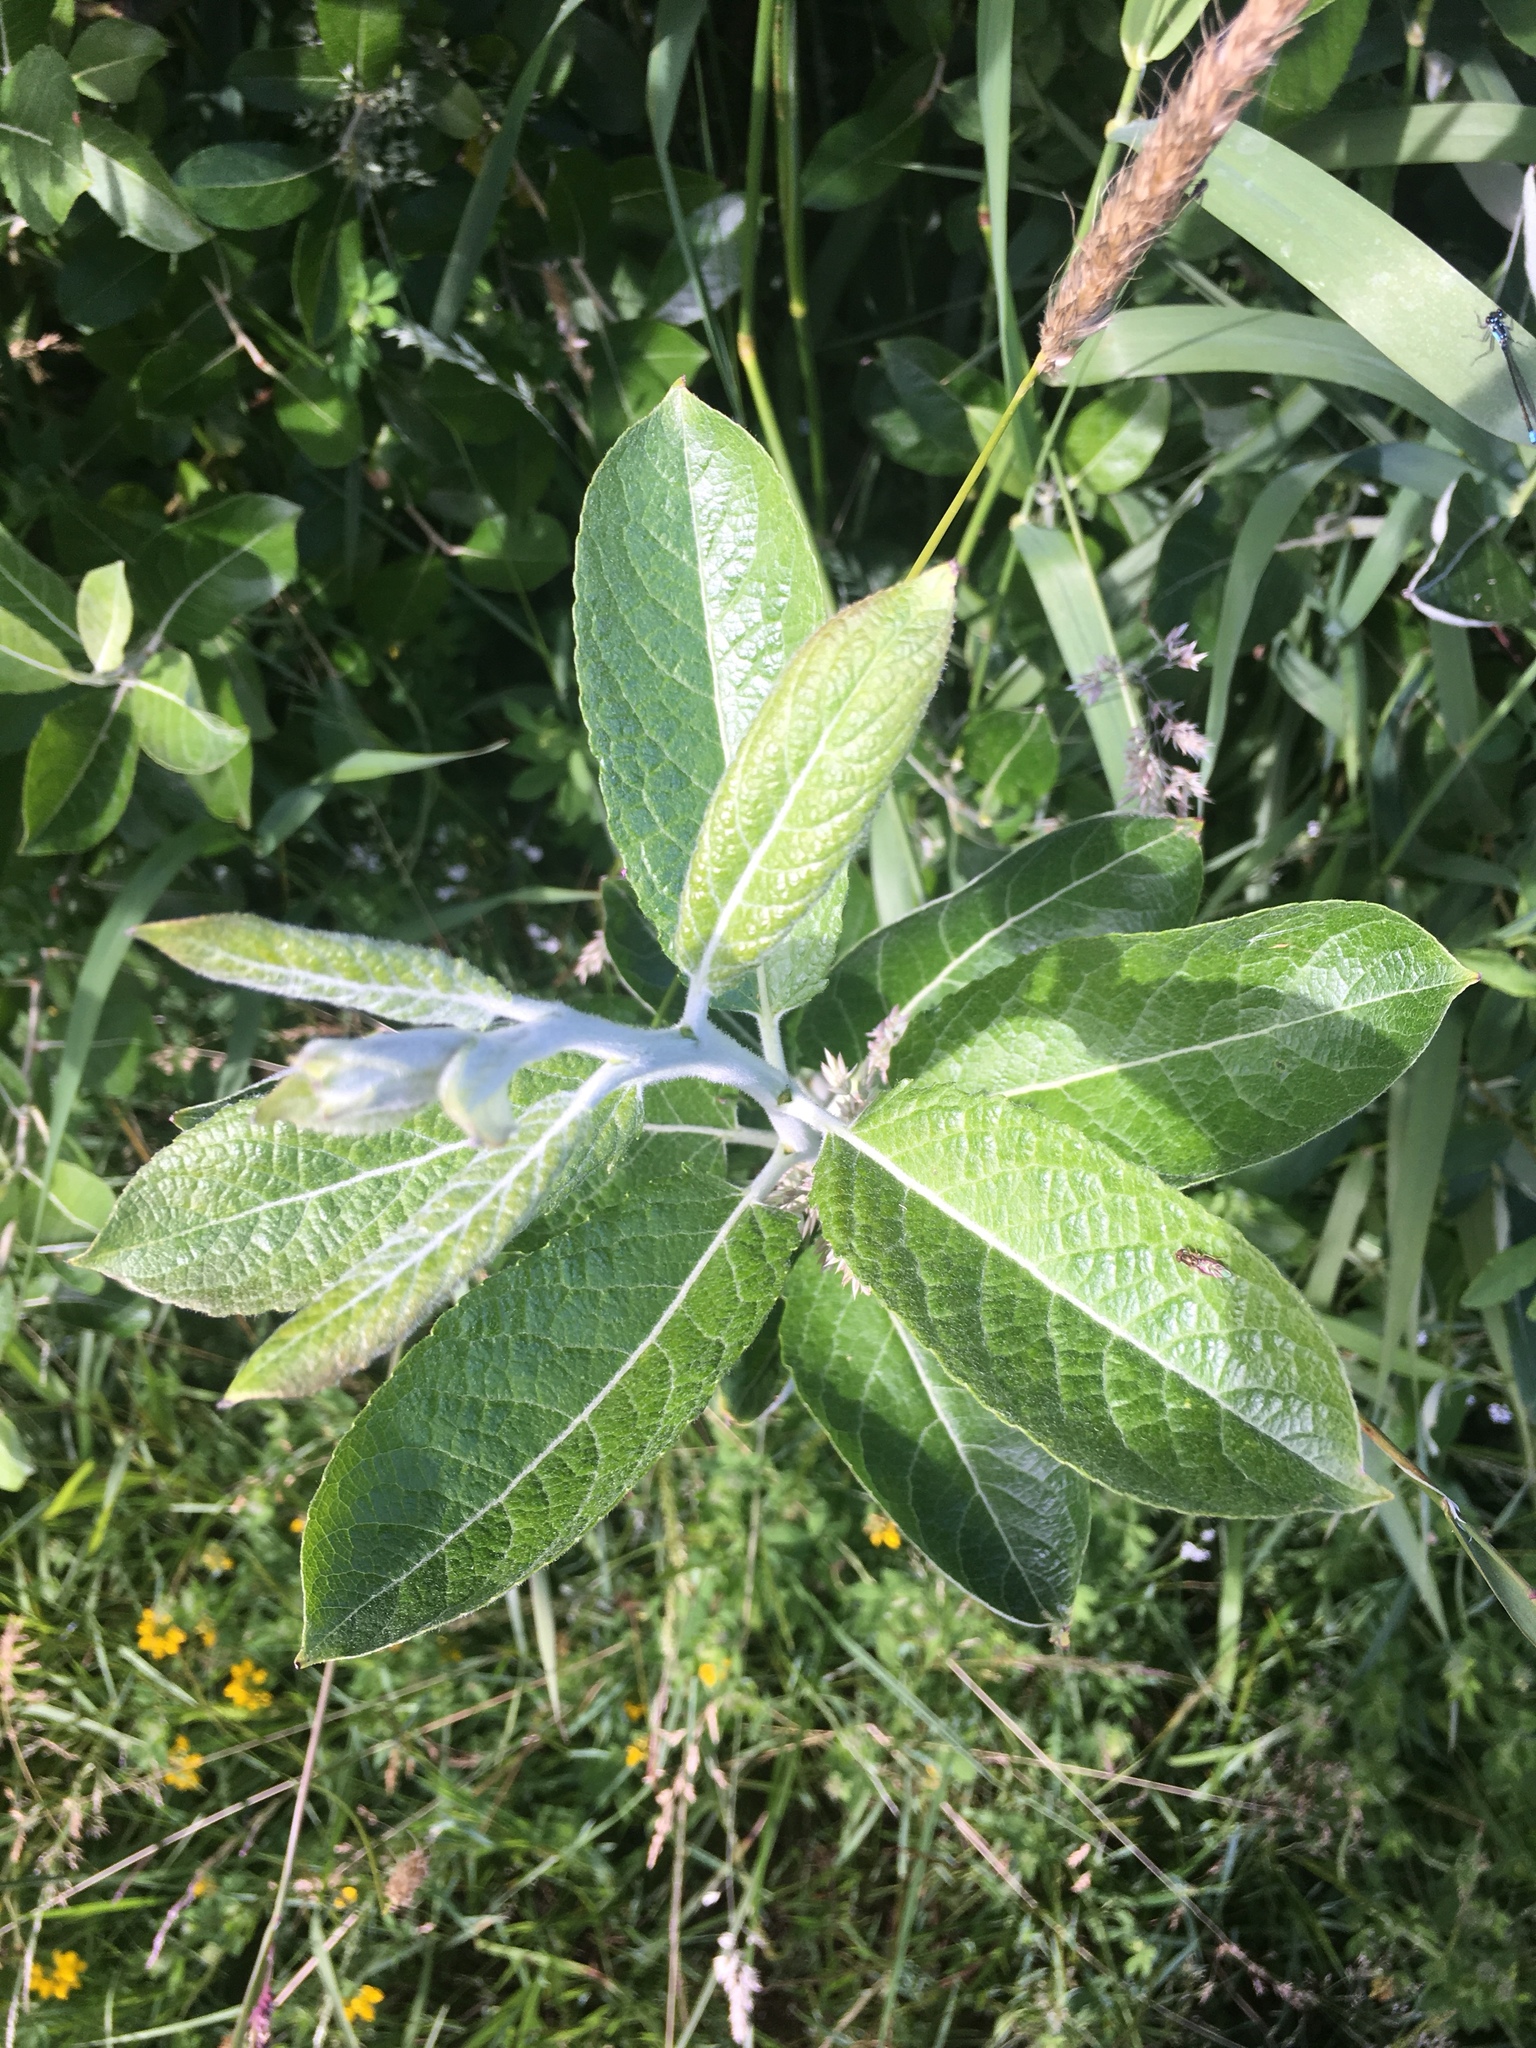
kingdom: Plantae
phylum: Tracheophyta
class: Magnoliopsida
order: Malpighiales
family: Salicaceae
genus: Salix
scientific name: Salix hookeriana
